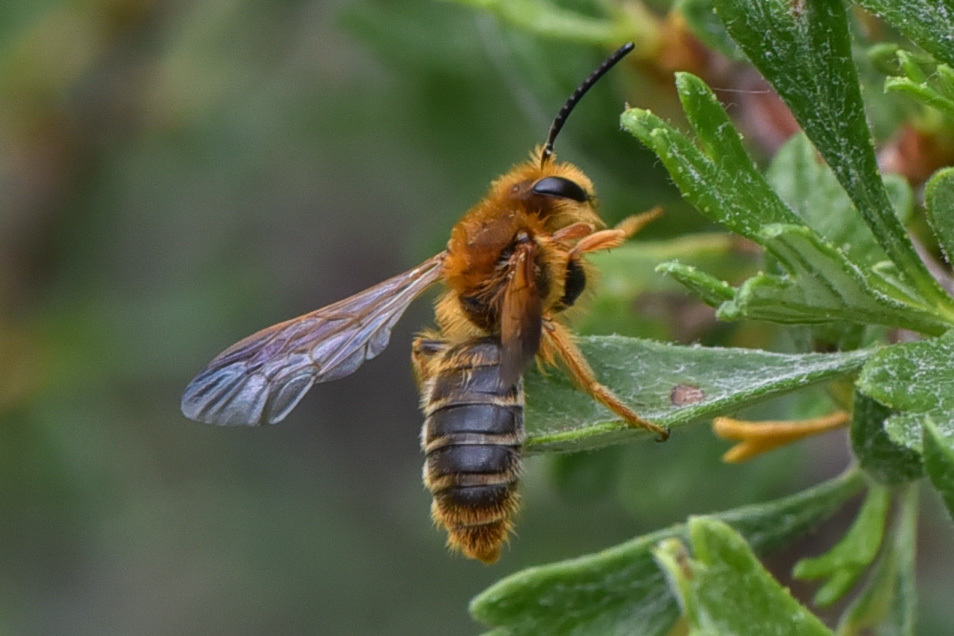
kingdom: Animalia
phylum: Arthropoda
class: Insecta
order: Hymenoptera
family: Andrenidae
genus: Andrena
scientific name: Andrena prunorum
